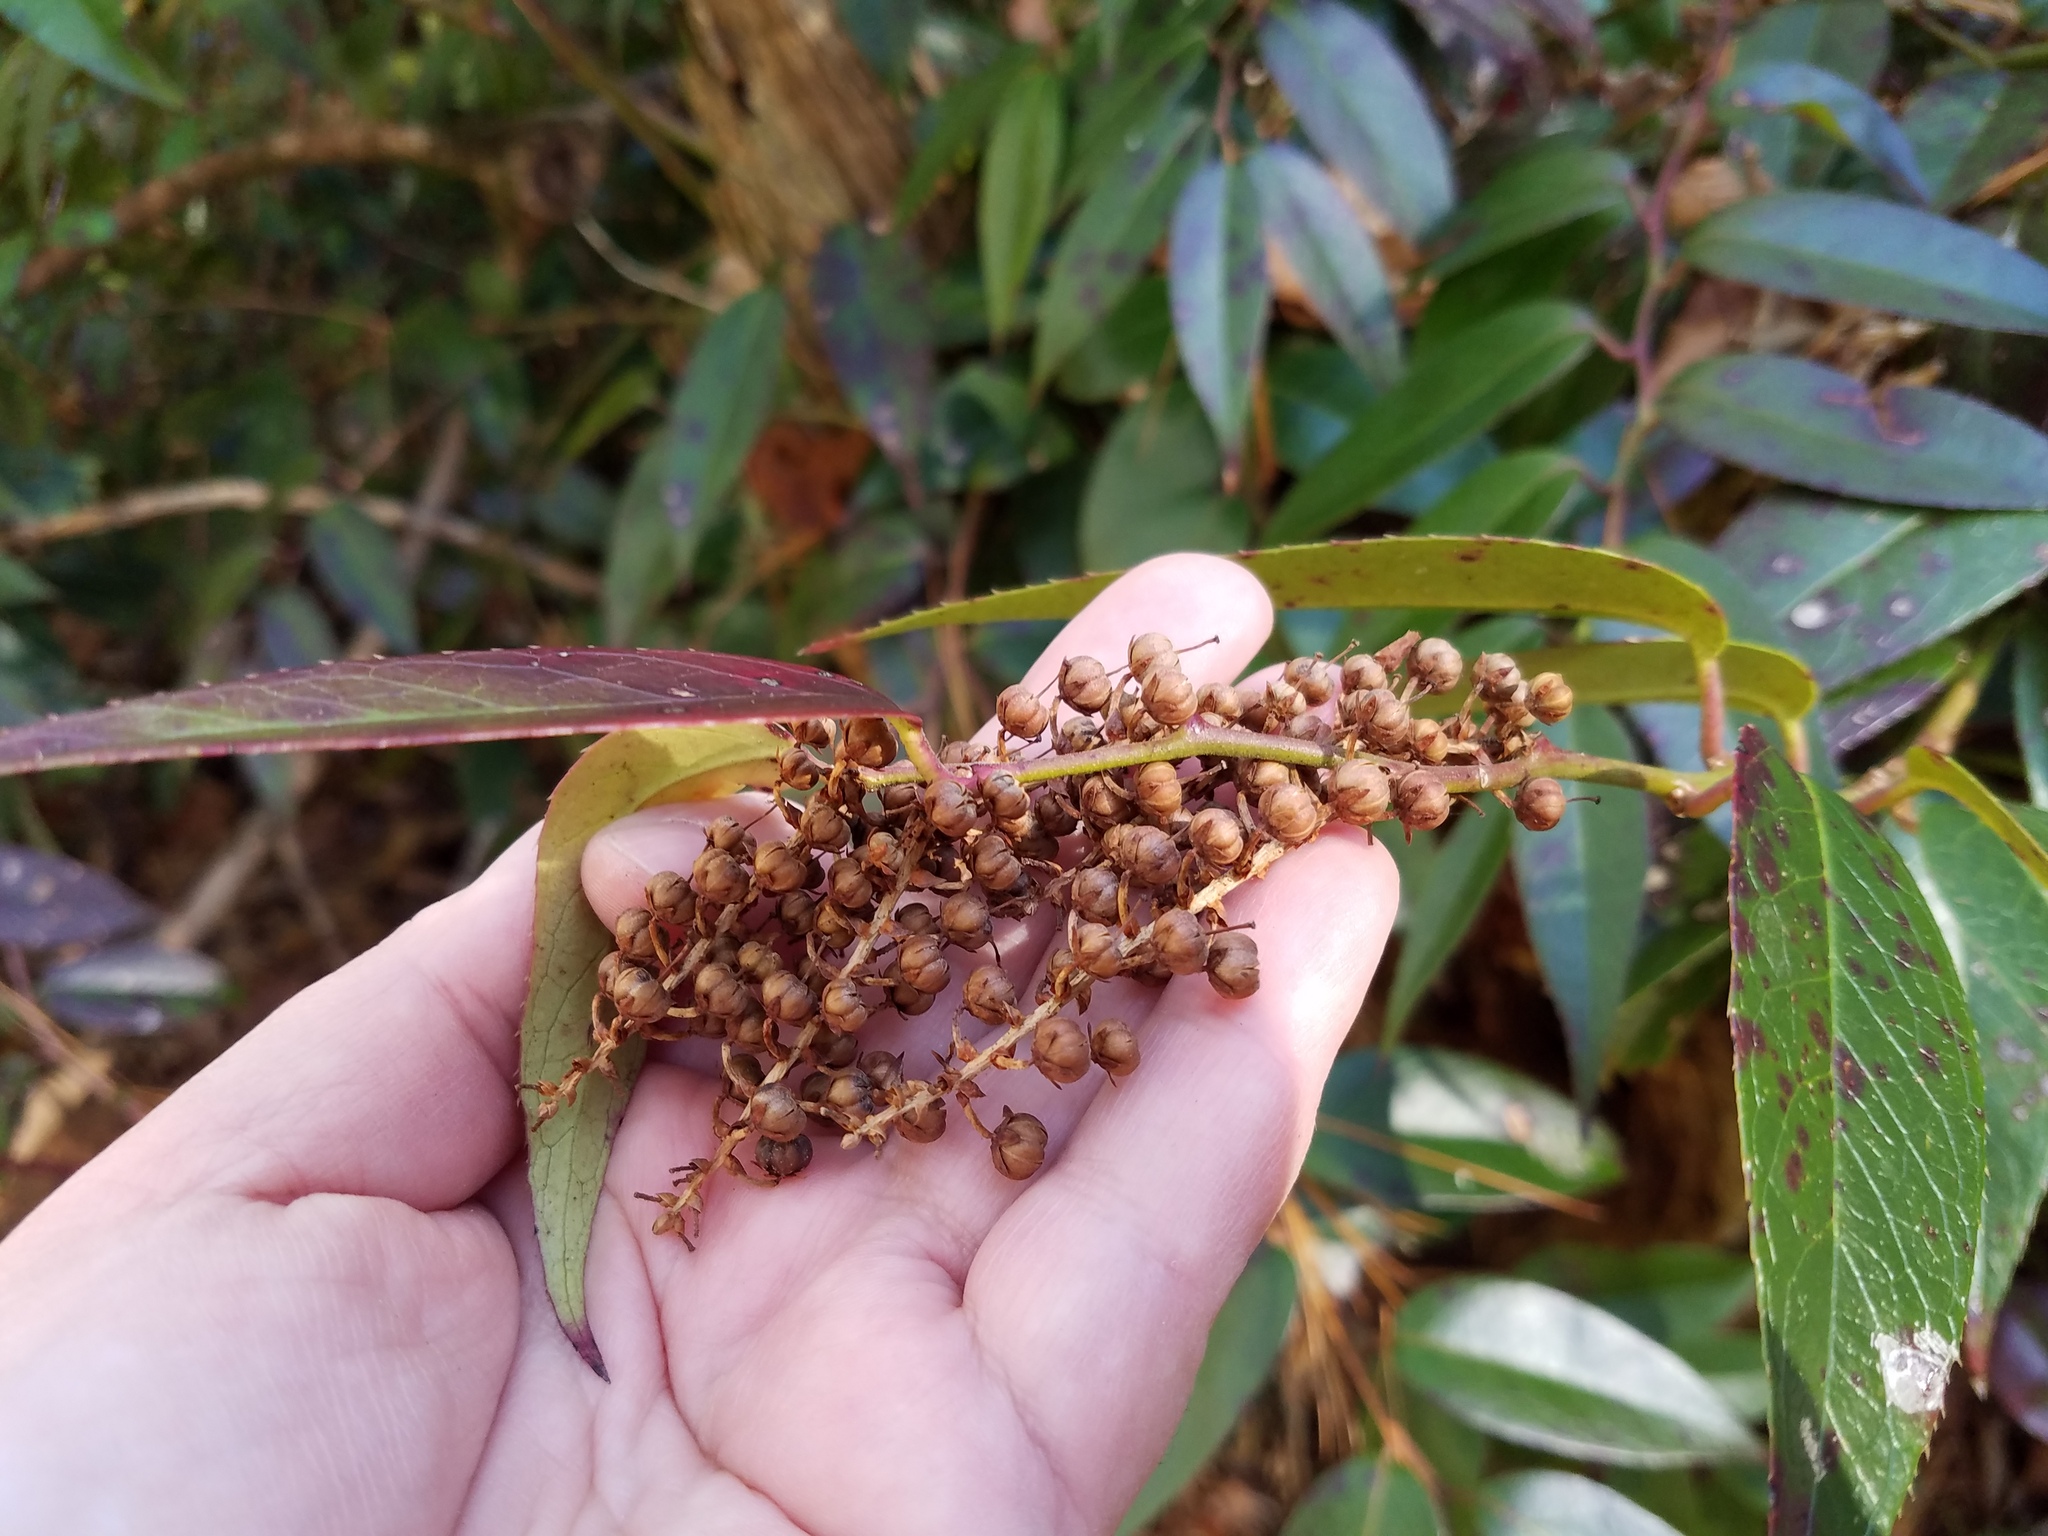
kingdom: Plantae
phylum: Tracheophyta
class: Magnoliopsida
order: Ericales
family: Ericaceae
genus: Leucothoe
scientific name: Leucothoe fontanesiana
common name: Fetterbush
